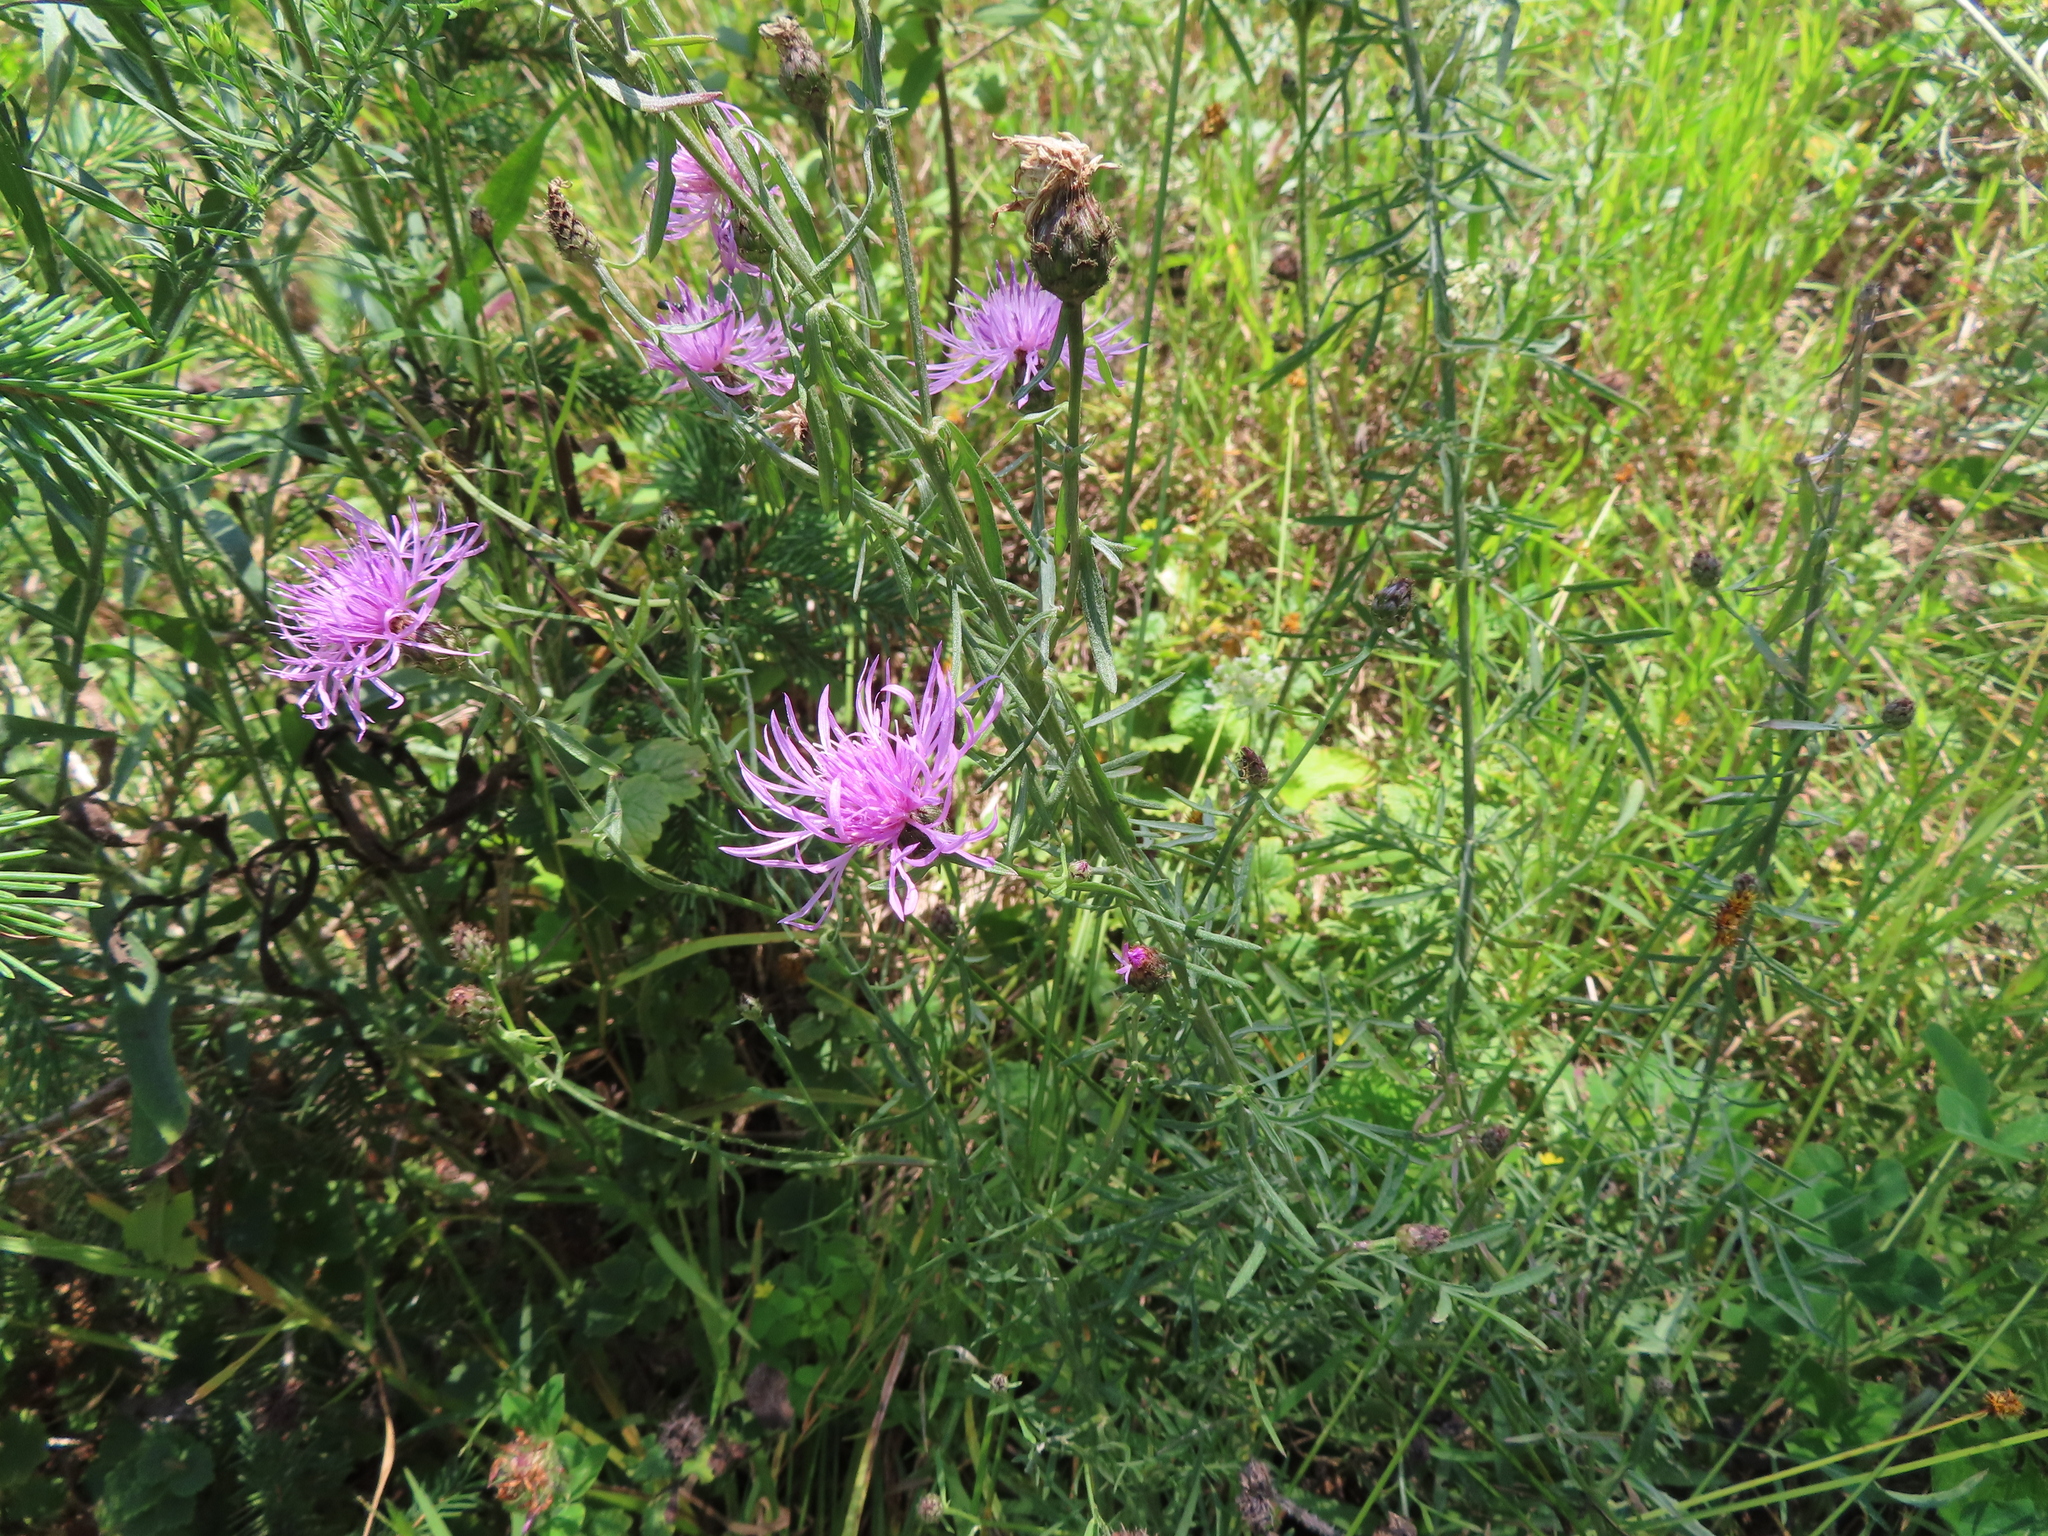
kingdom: Plantae
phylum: Tracheophyta
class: Magnoliopsida
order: Asterales
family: Asteraceae
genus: Centaurea
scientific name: Centaurea stoebe
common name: Spotted knapweed
